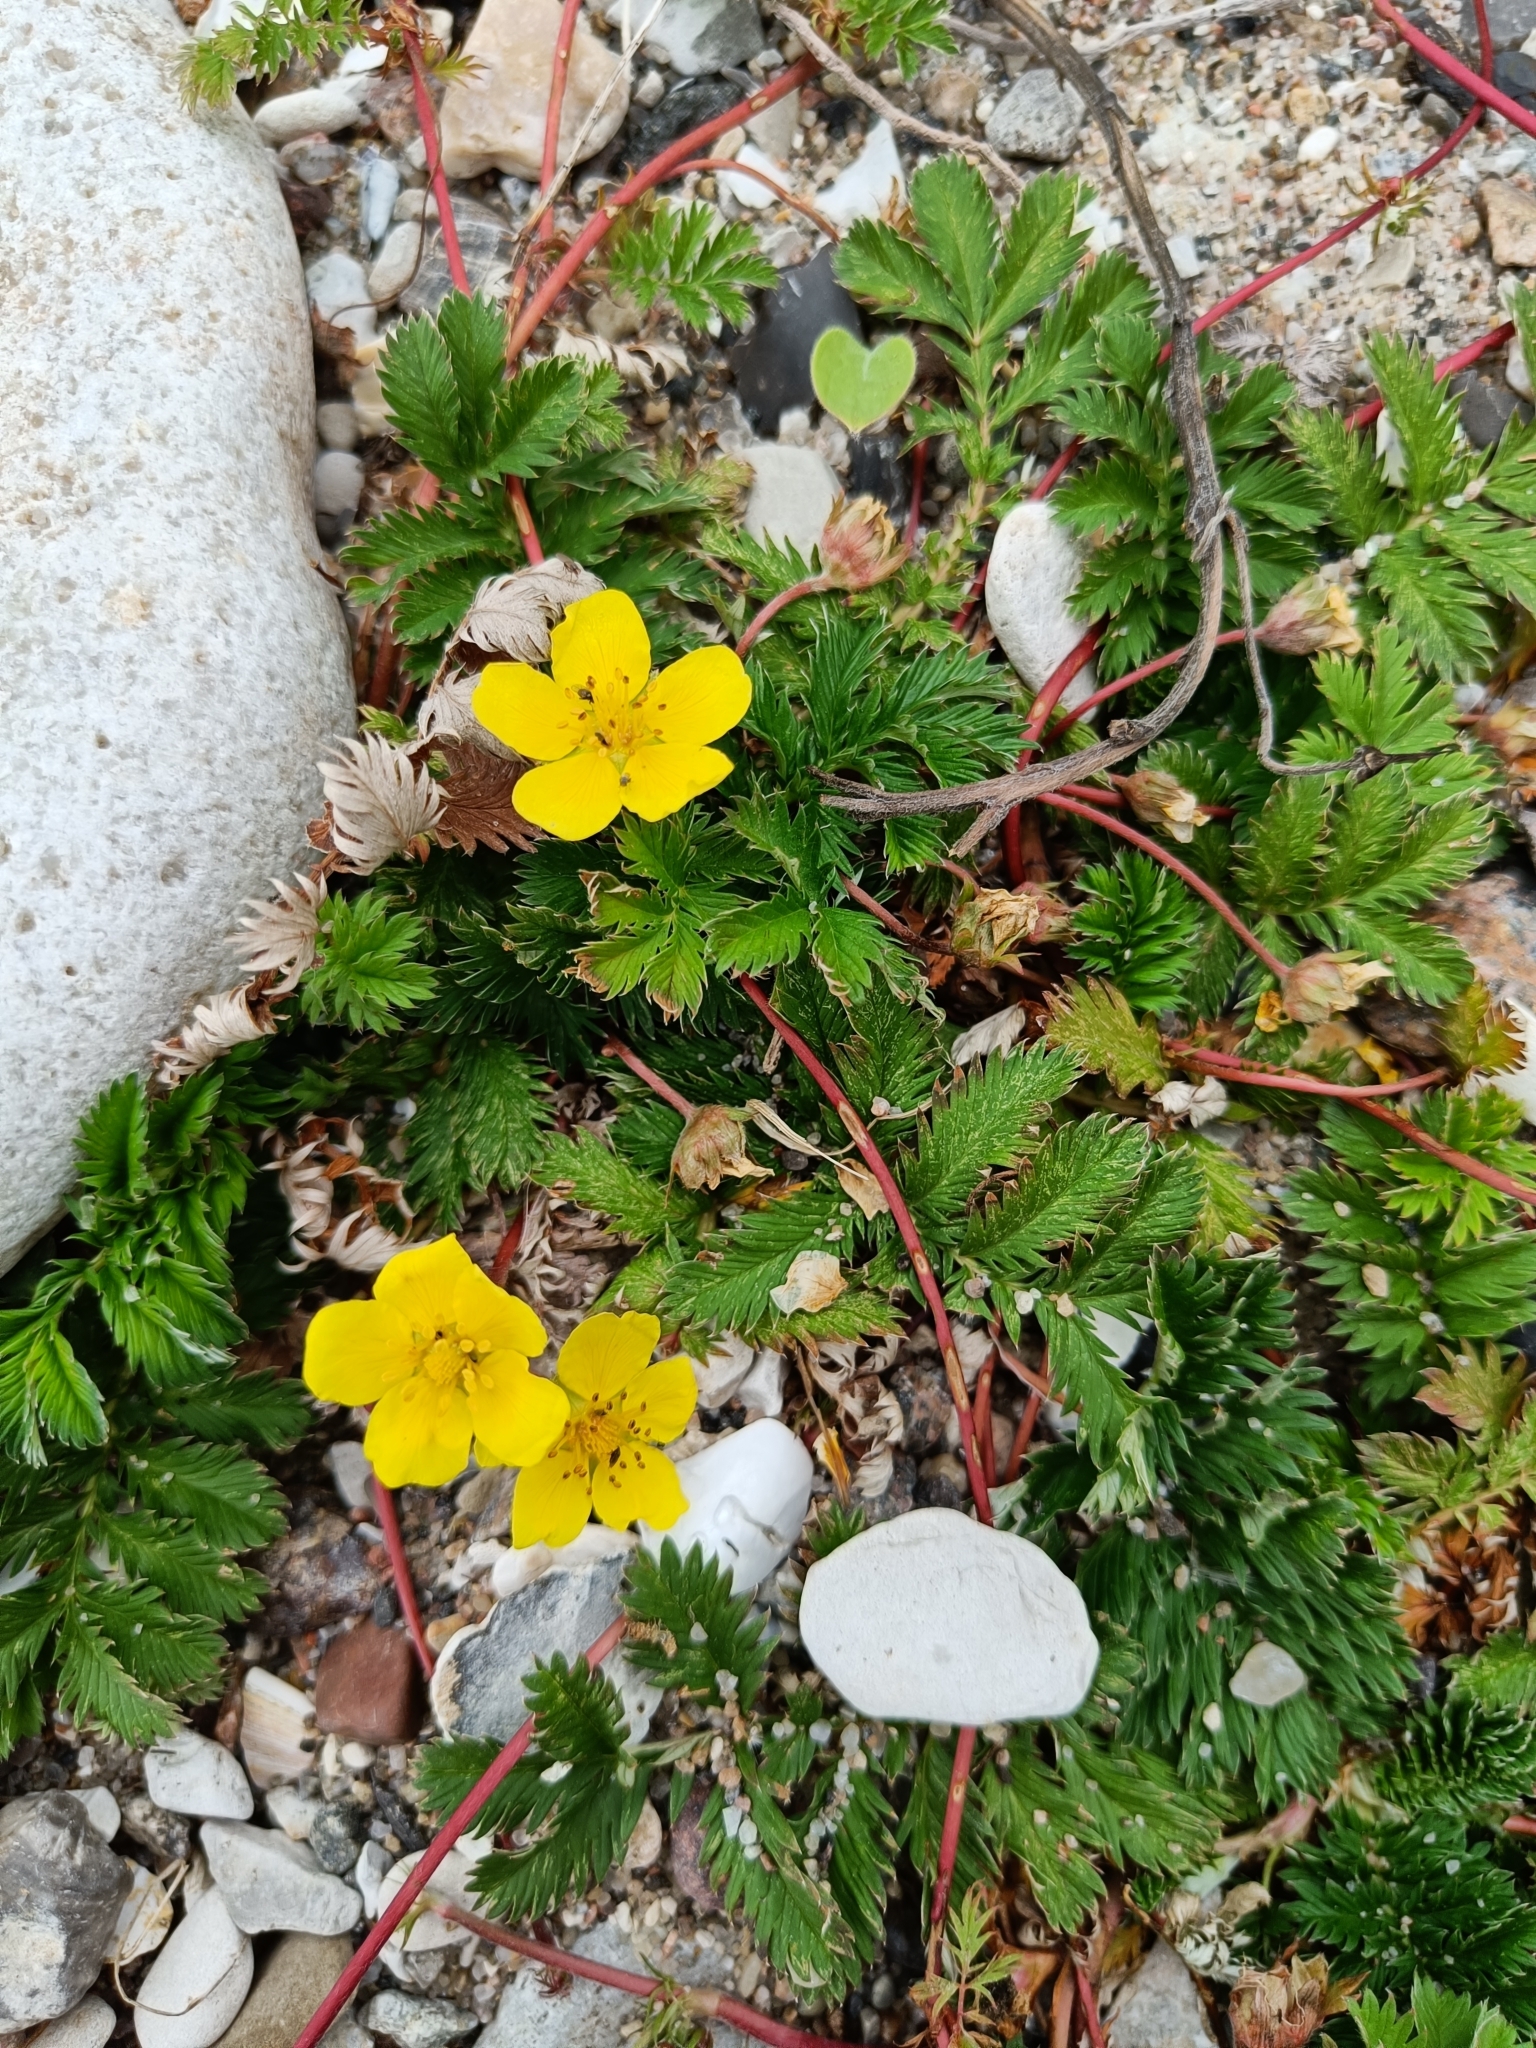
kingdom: Plantae
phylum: Tracheophyta
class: Magnoliopsida
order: Rosales
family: Rosaceae
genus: Argentina
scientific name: Argentina anserina
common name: Common silverweed
